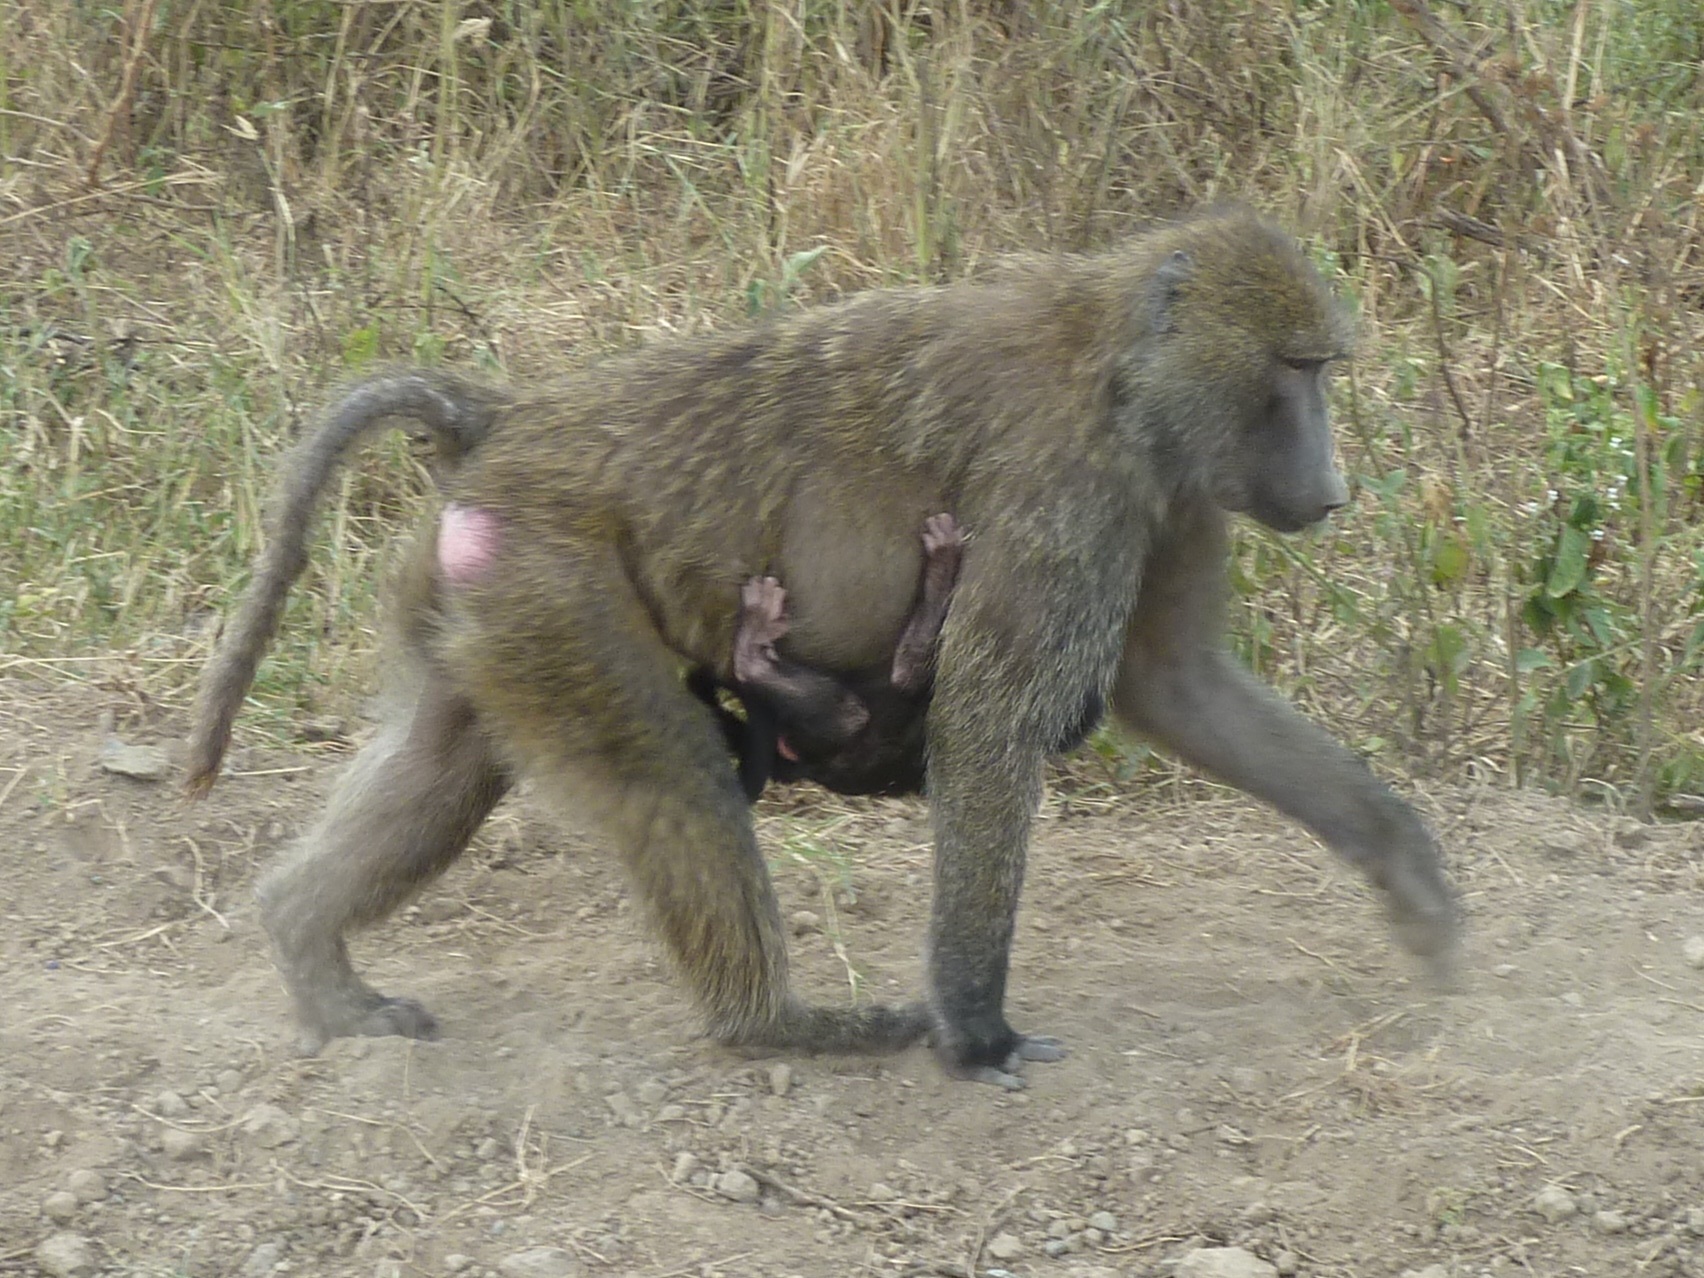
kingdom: Animalia
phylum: Chordata
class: Mammalia
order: Primates
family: Cercopithecidae
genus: Papio
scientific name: Papio anubis
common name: Olive baboon
